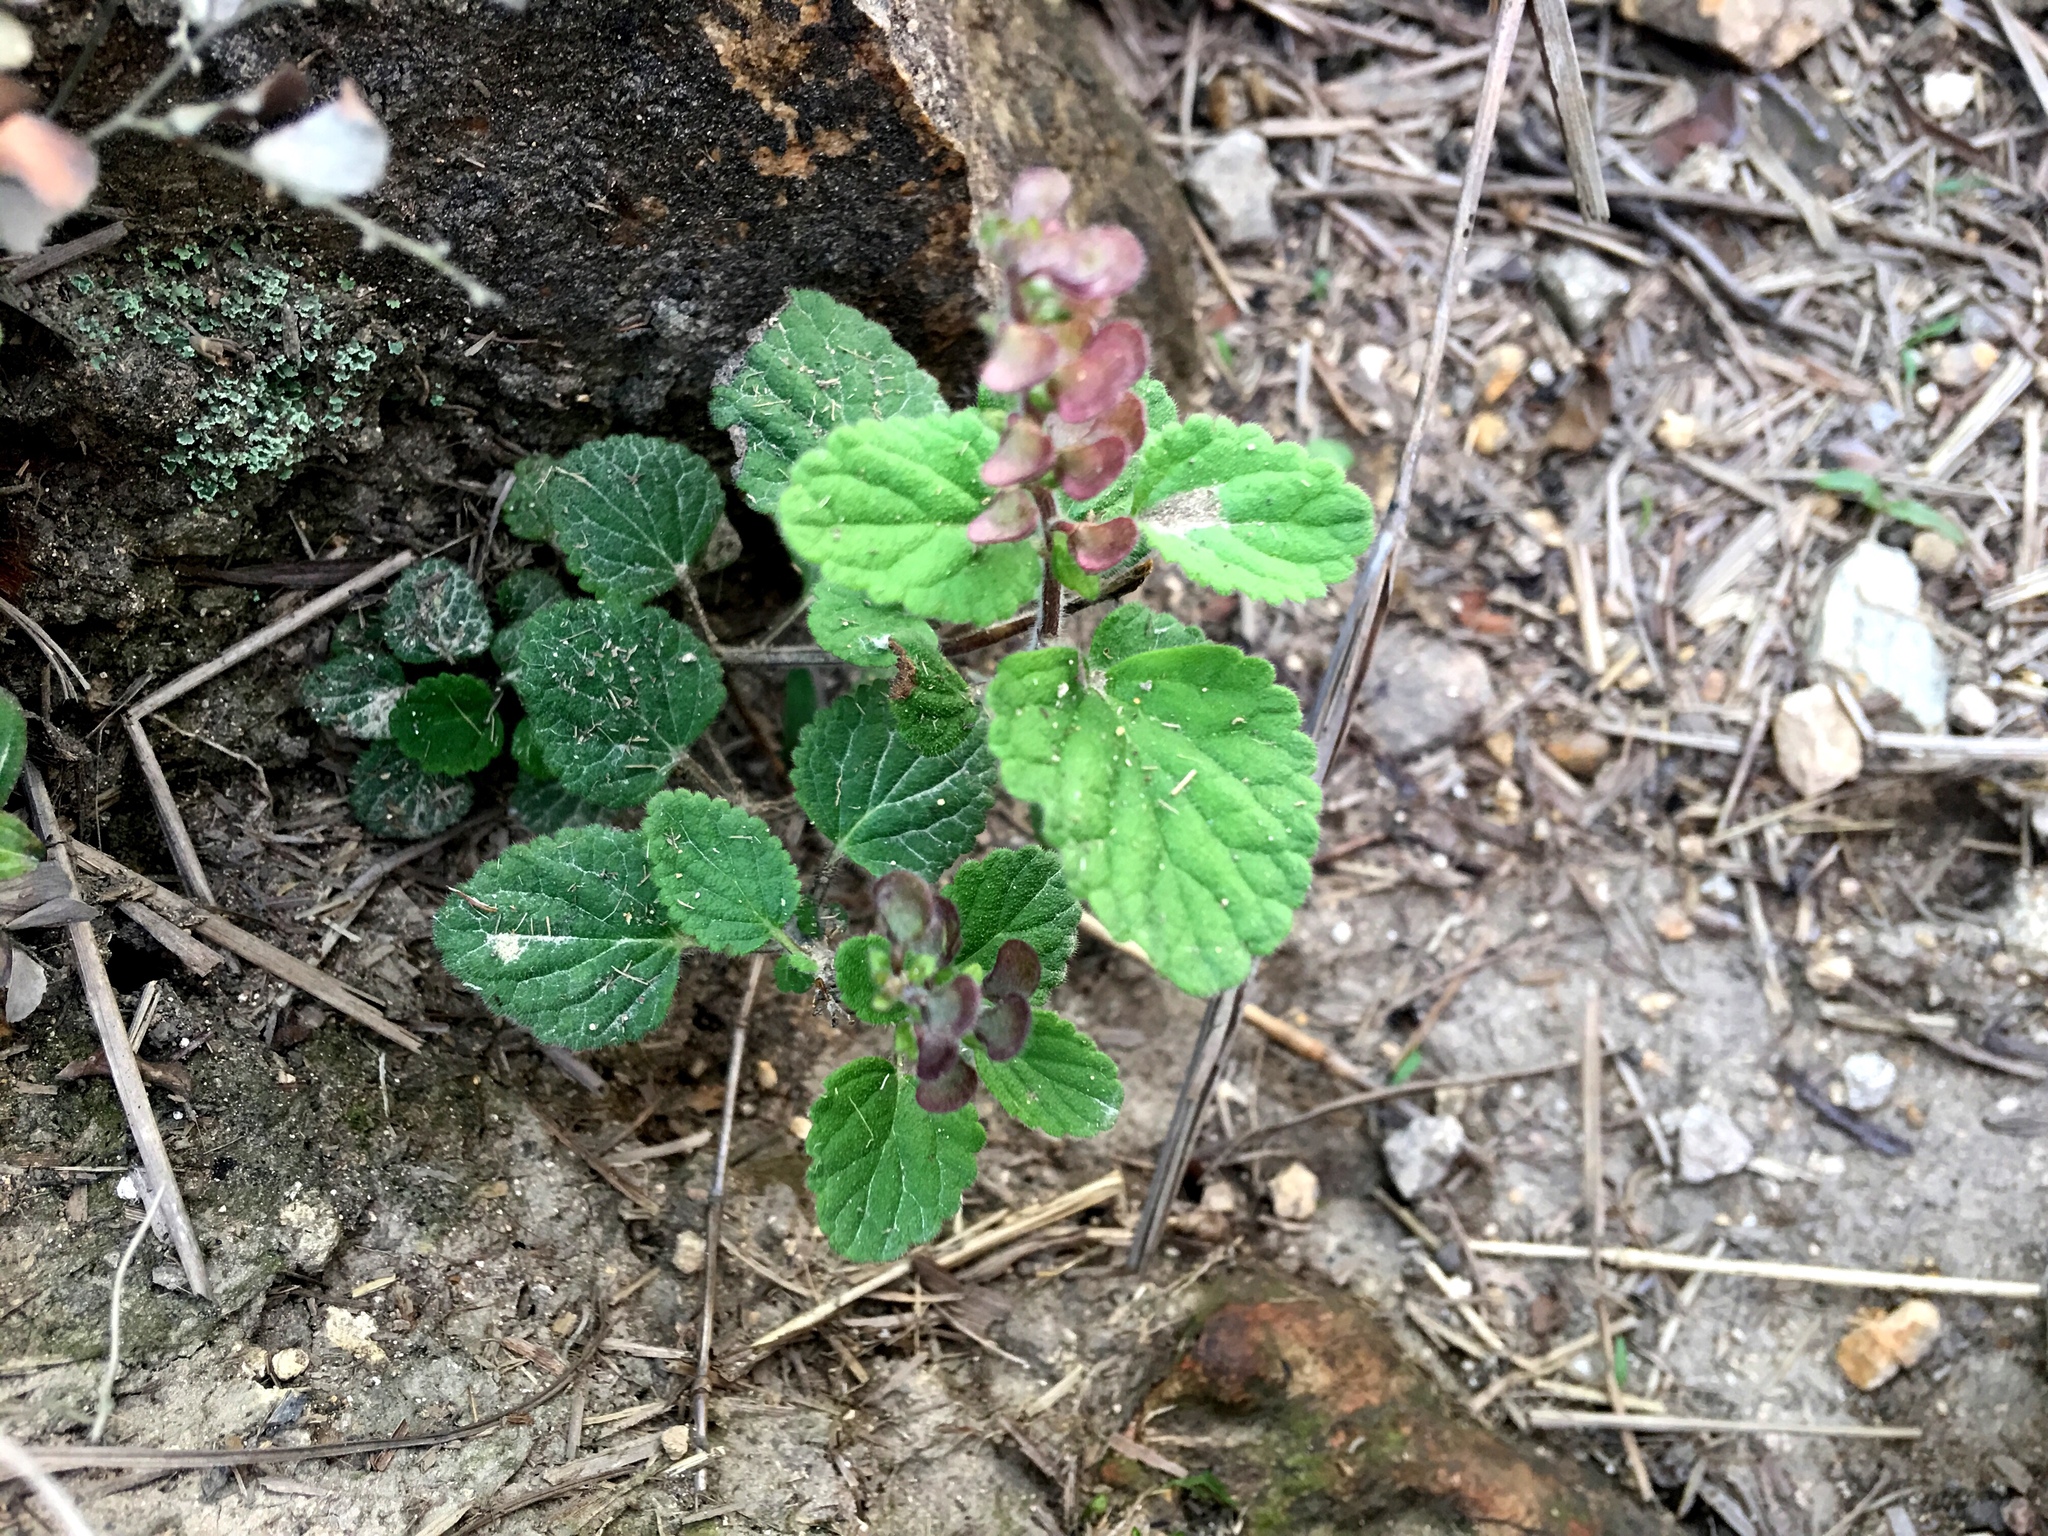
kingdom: Plantae
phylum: Tracheophyta
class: Magnoliopsida
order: Lamiales
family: Lamiaceae
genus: Scutellaria
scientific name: Scutellaria indica
